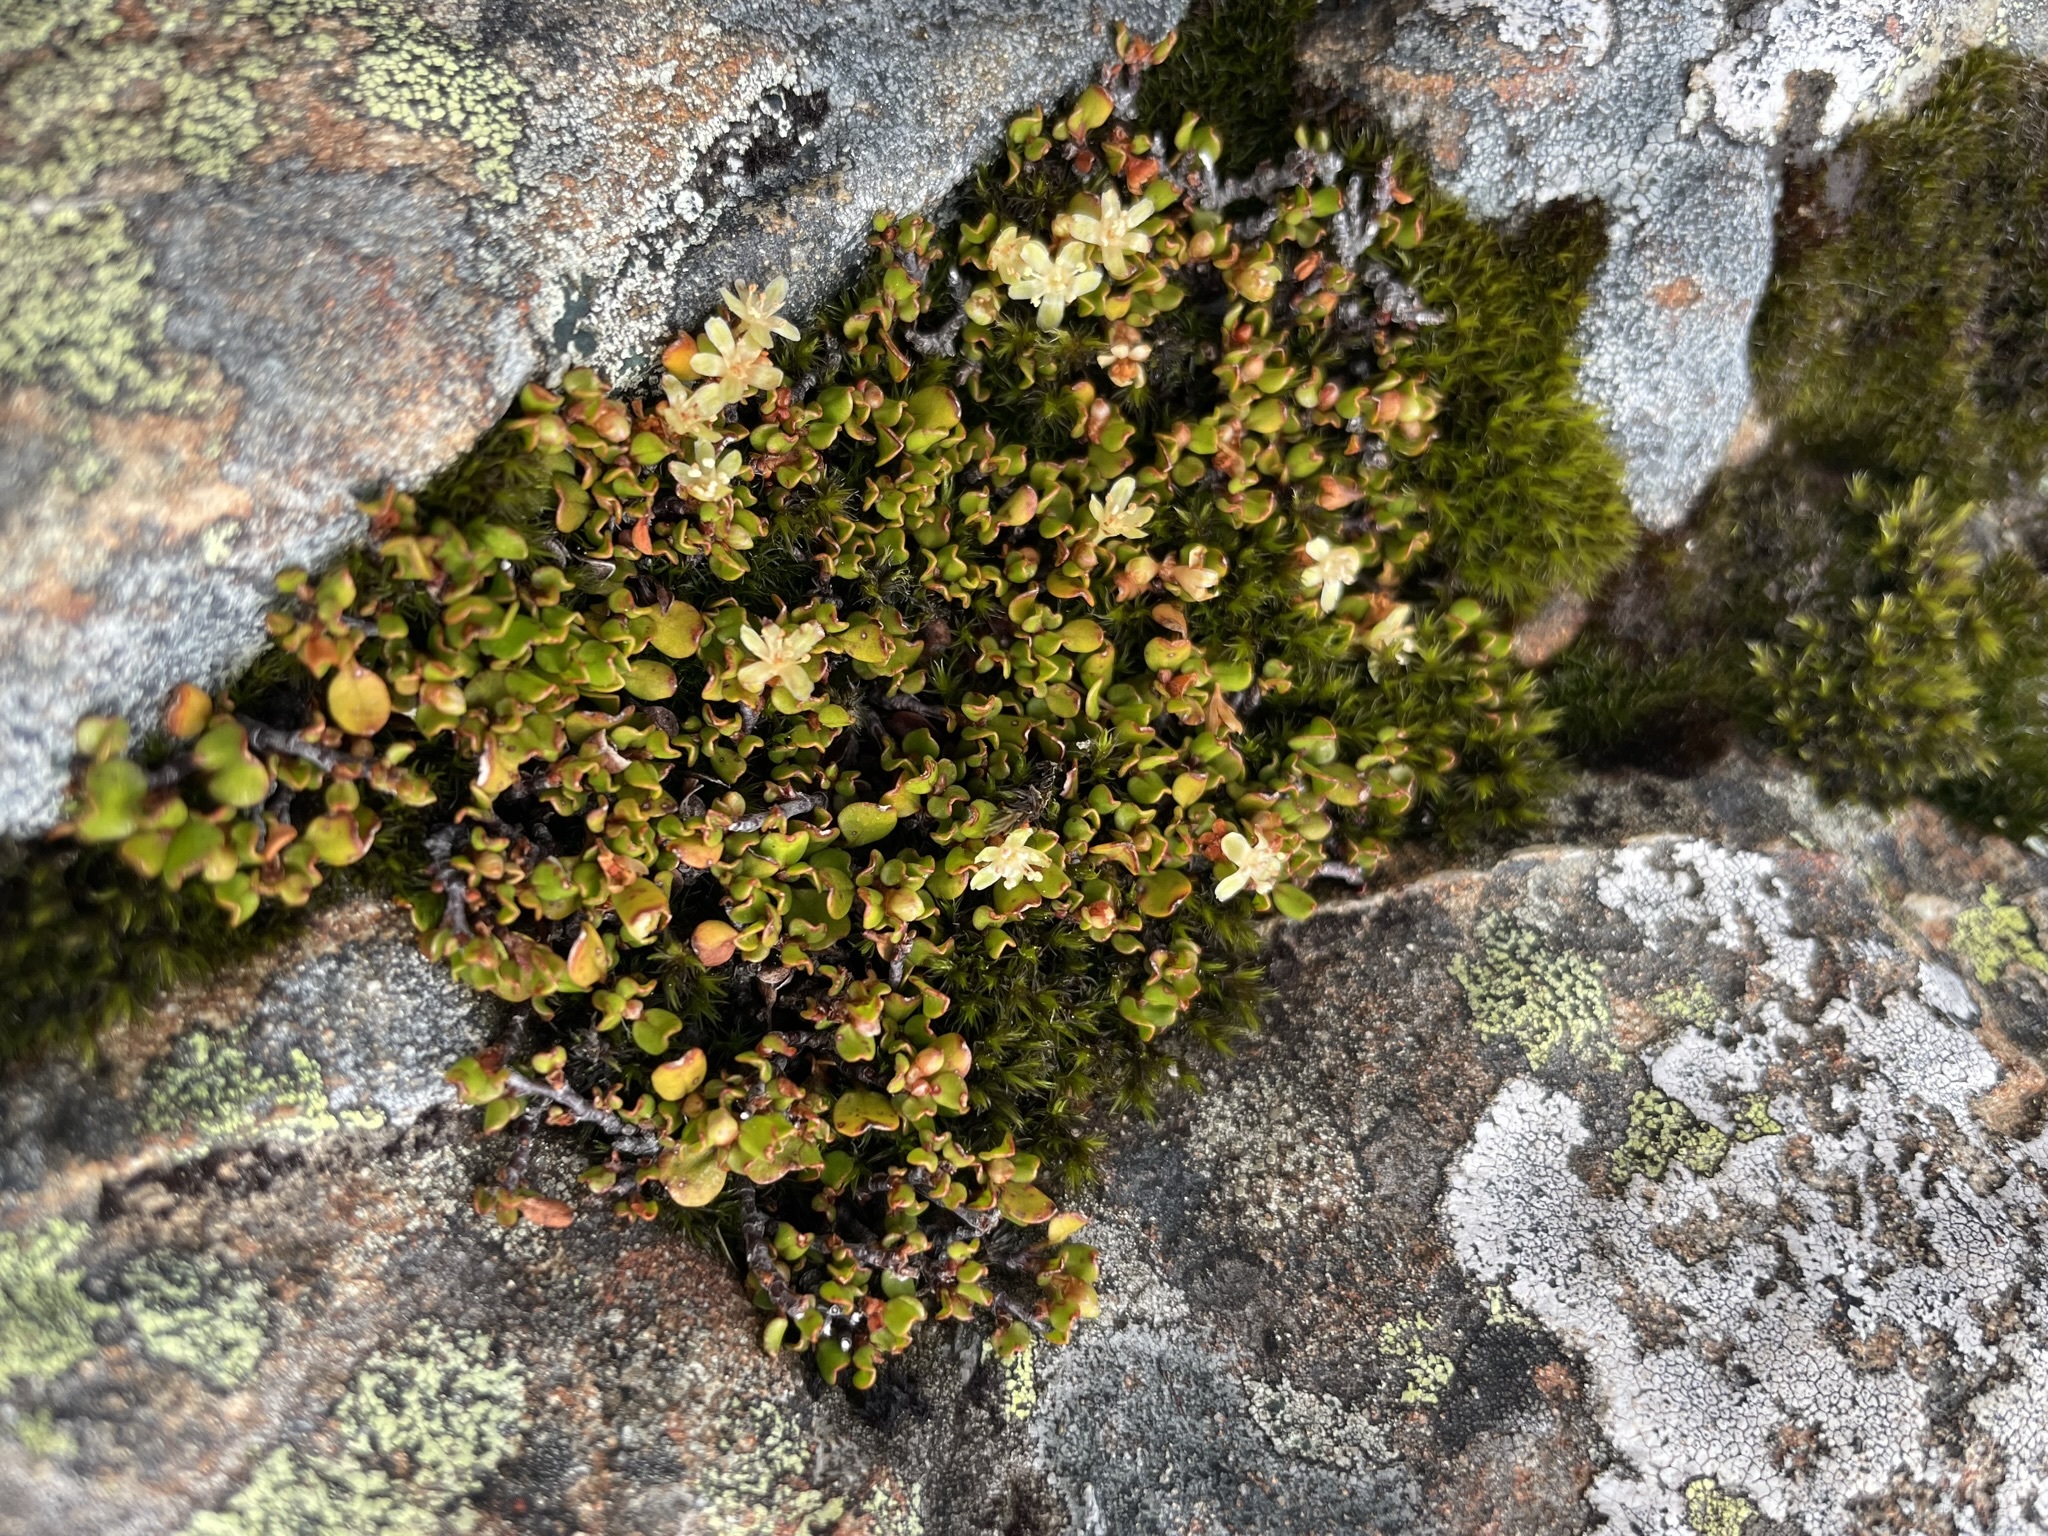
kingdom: Plantae
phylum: Tracheophyta
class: Magnoliopsida
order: Caryophyllales
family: Polygonaceae
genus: Muehlenbeckia
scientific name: Muehlenbeckia axillaris
